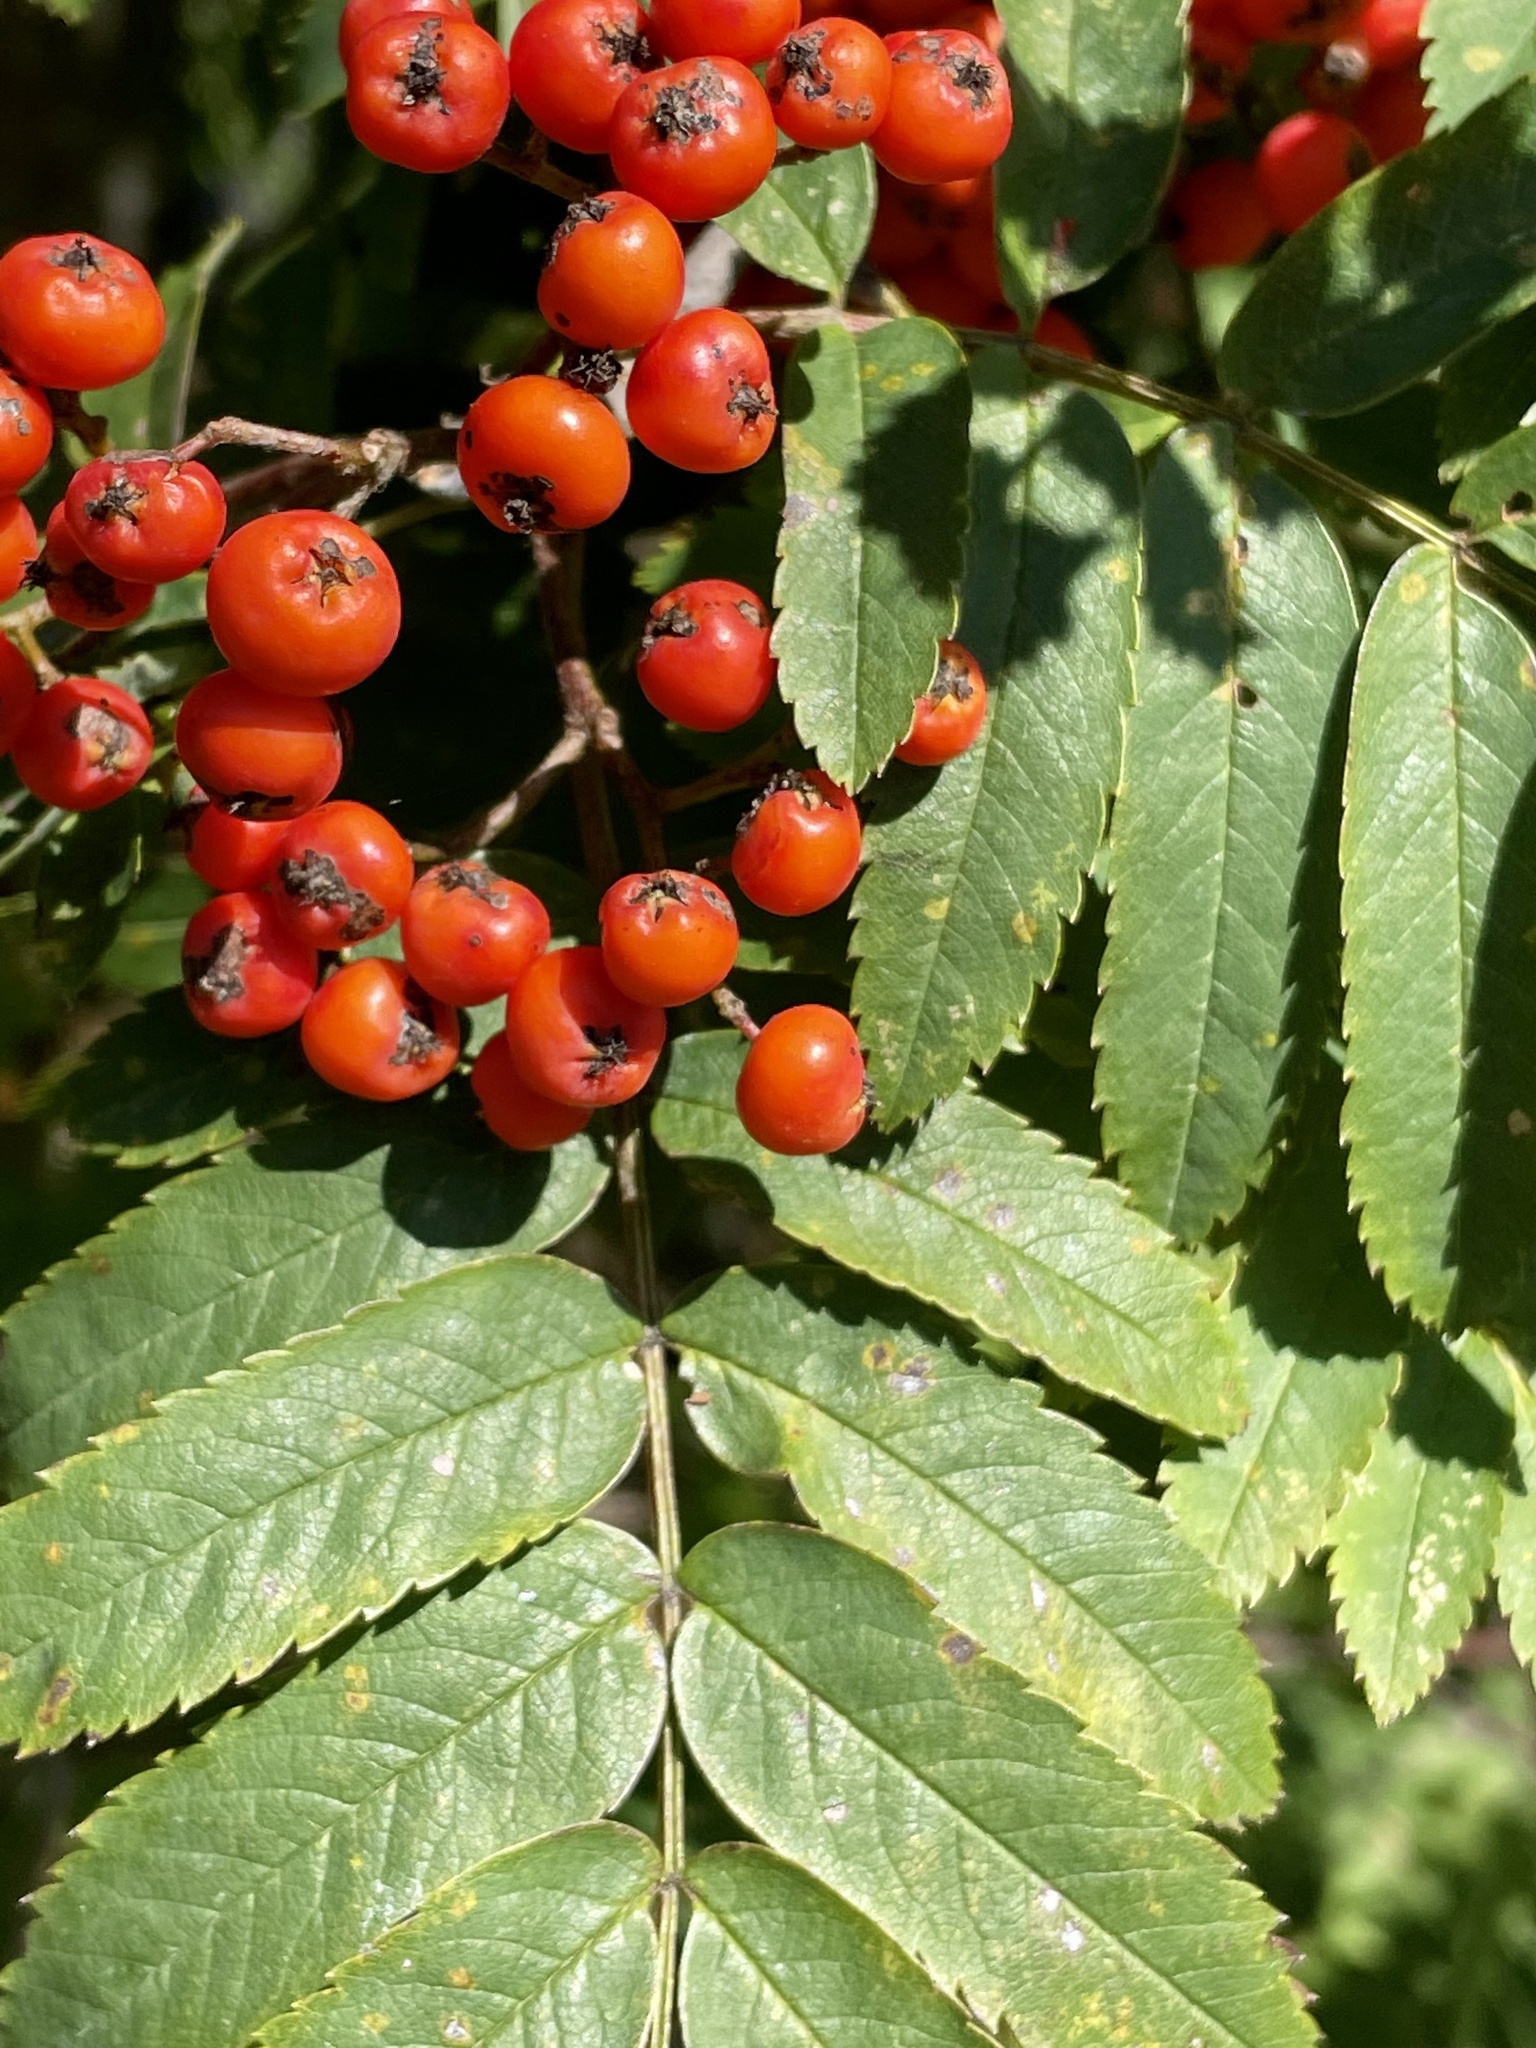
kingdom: Plantae
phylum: Tracheophyta
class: Magnoliopsida
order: Rosales
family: Rosaceae
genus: Sorbus
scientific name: Sorbus aucuparia
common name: Rowan
